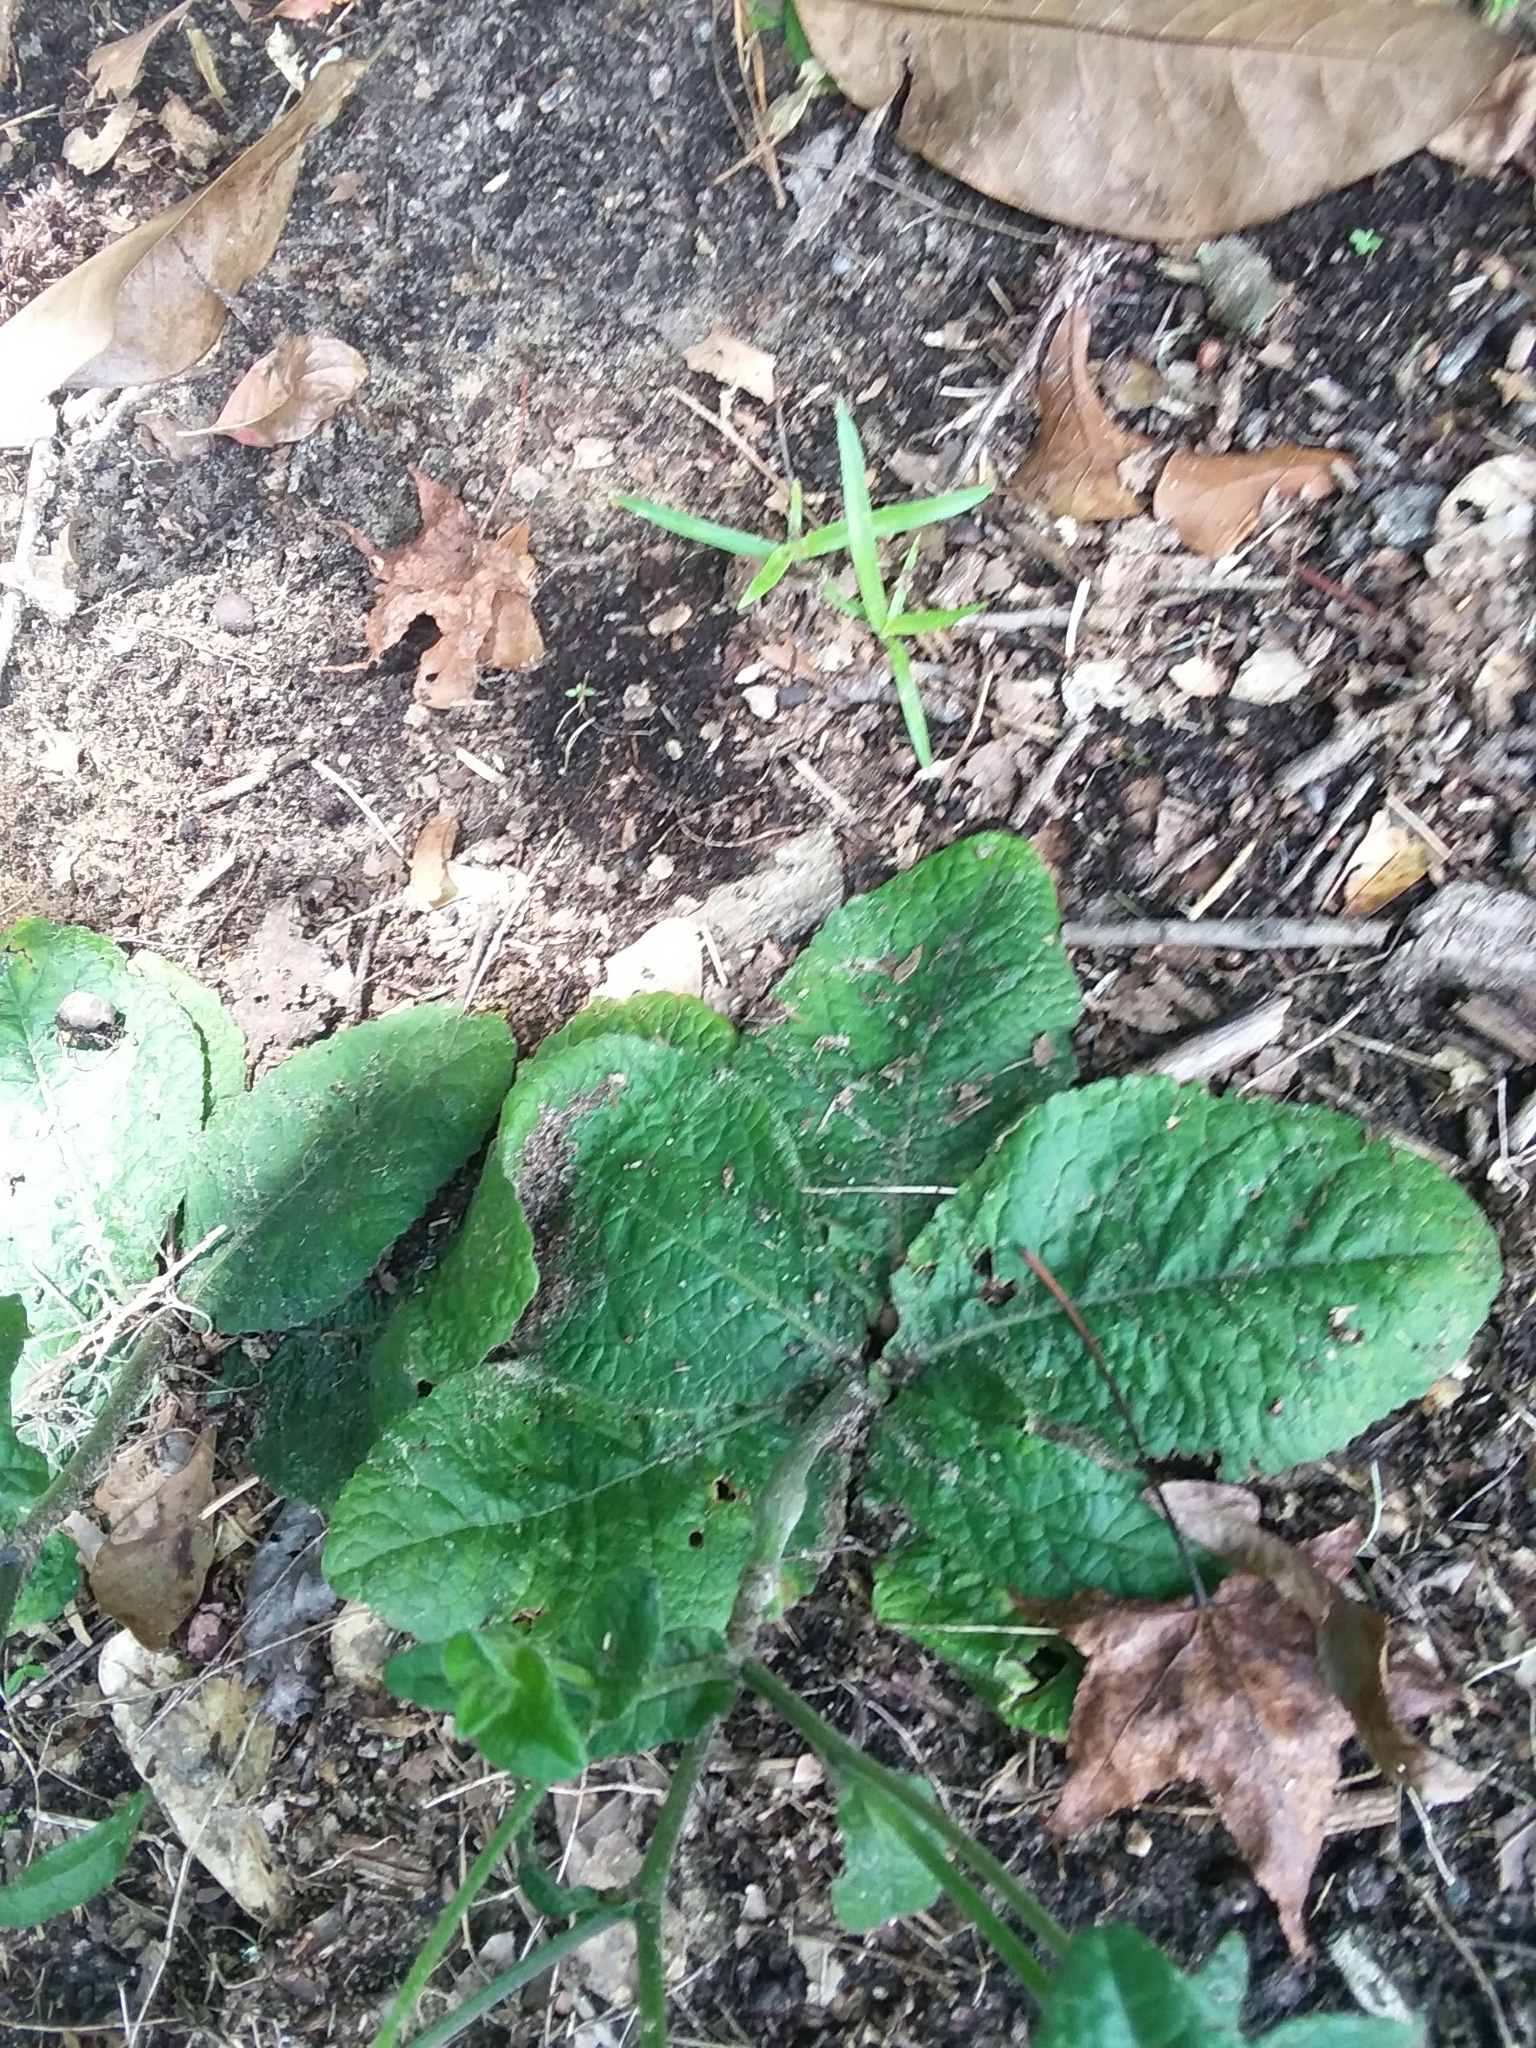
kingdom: Plantae
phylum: Tracheophyta
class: Magnoliopsida
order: Asterales
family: Asteraceae
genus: Elephantopus
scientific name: Elephantopus tomentosus
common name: Tobacco-weed
